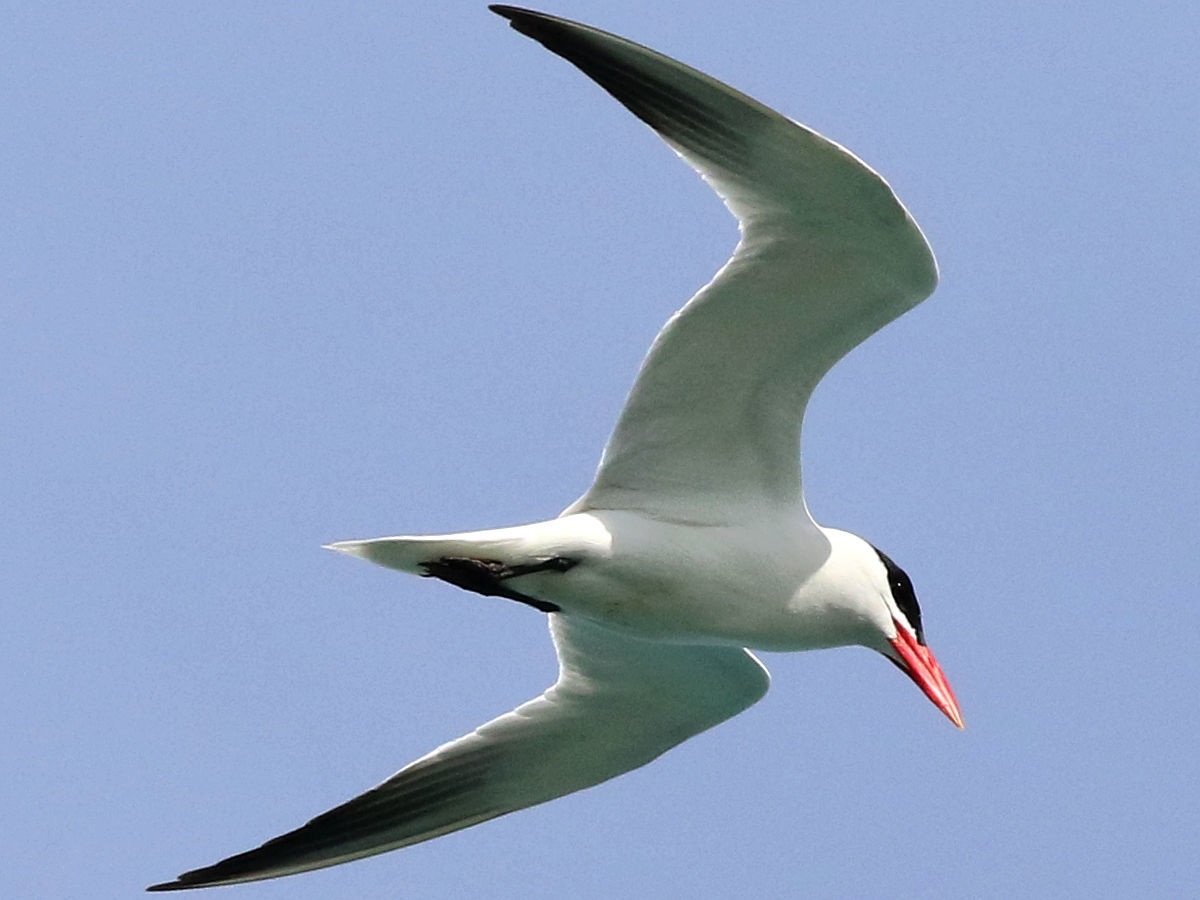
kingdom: Animalia
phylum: Chordata
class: Aves
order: Charadriiformes
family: Laridae
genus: Hydroprogne
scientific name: Hydroprogne caspia
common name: Caspian tern
